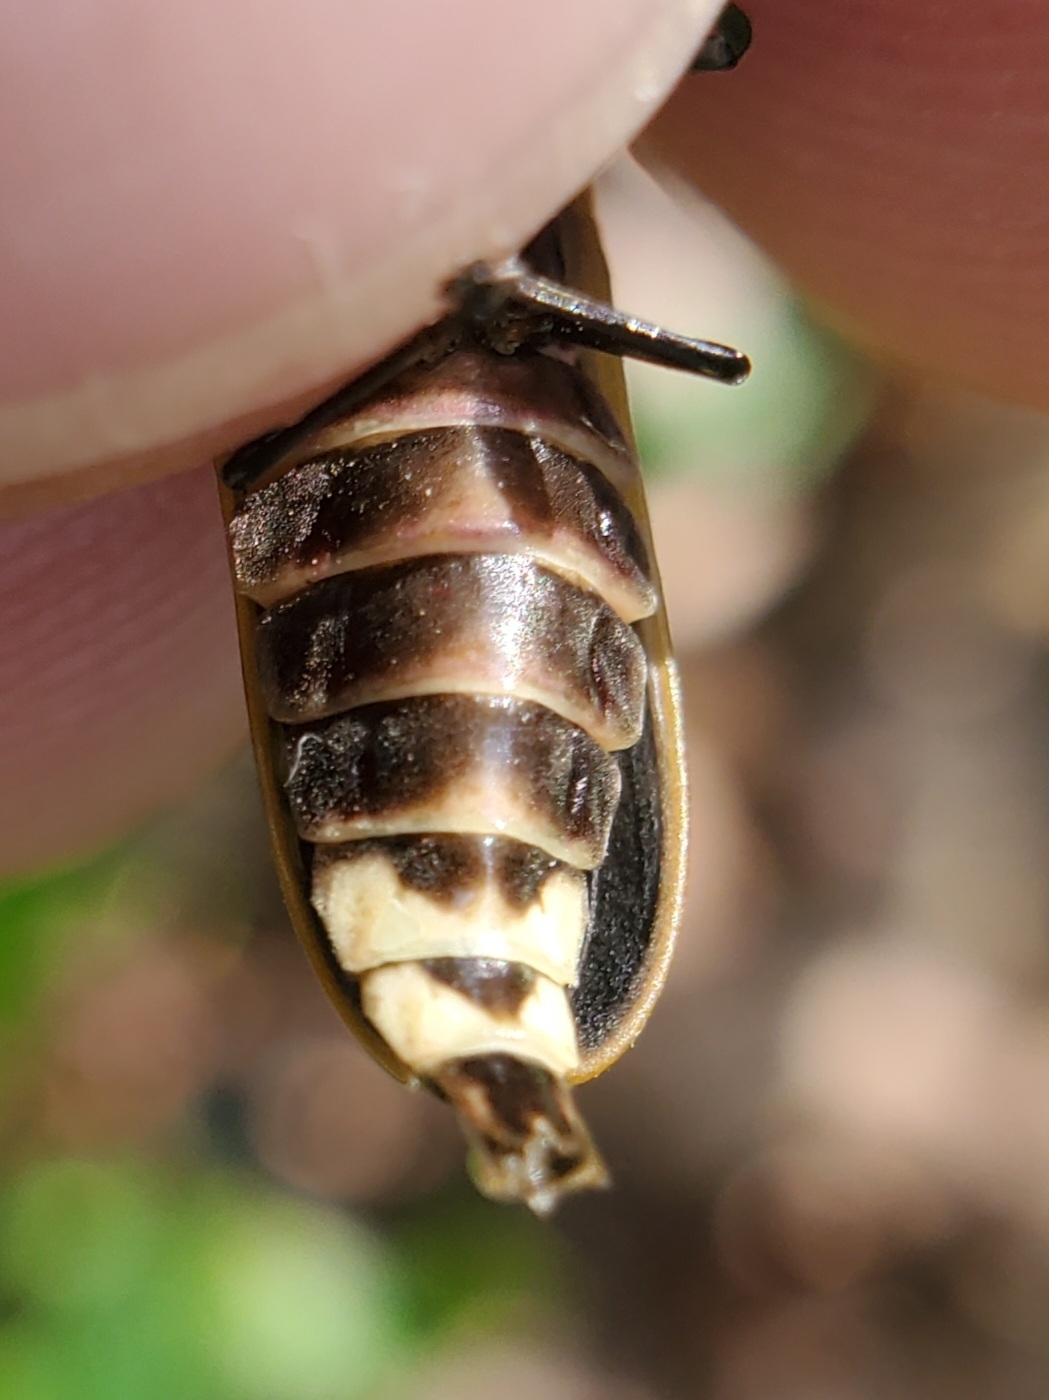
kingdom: Animalia
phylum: Arthropoda
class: Insecta
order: Coleoptera
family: Lampyridae
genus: Pyractomena
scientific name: Pyractomena borealis
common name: Northern firefly
